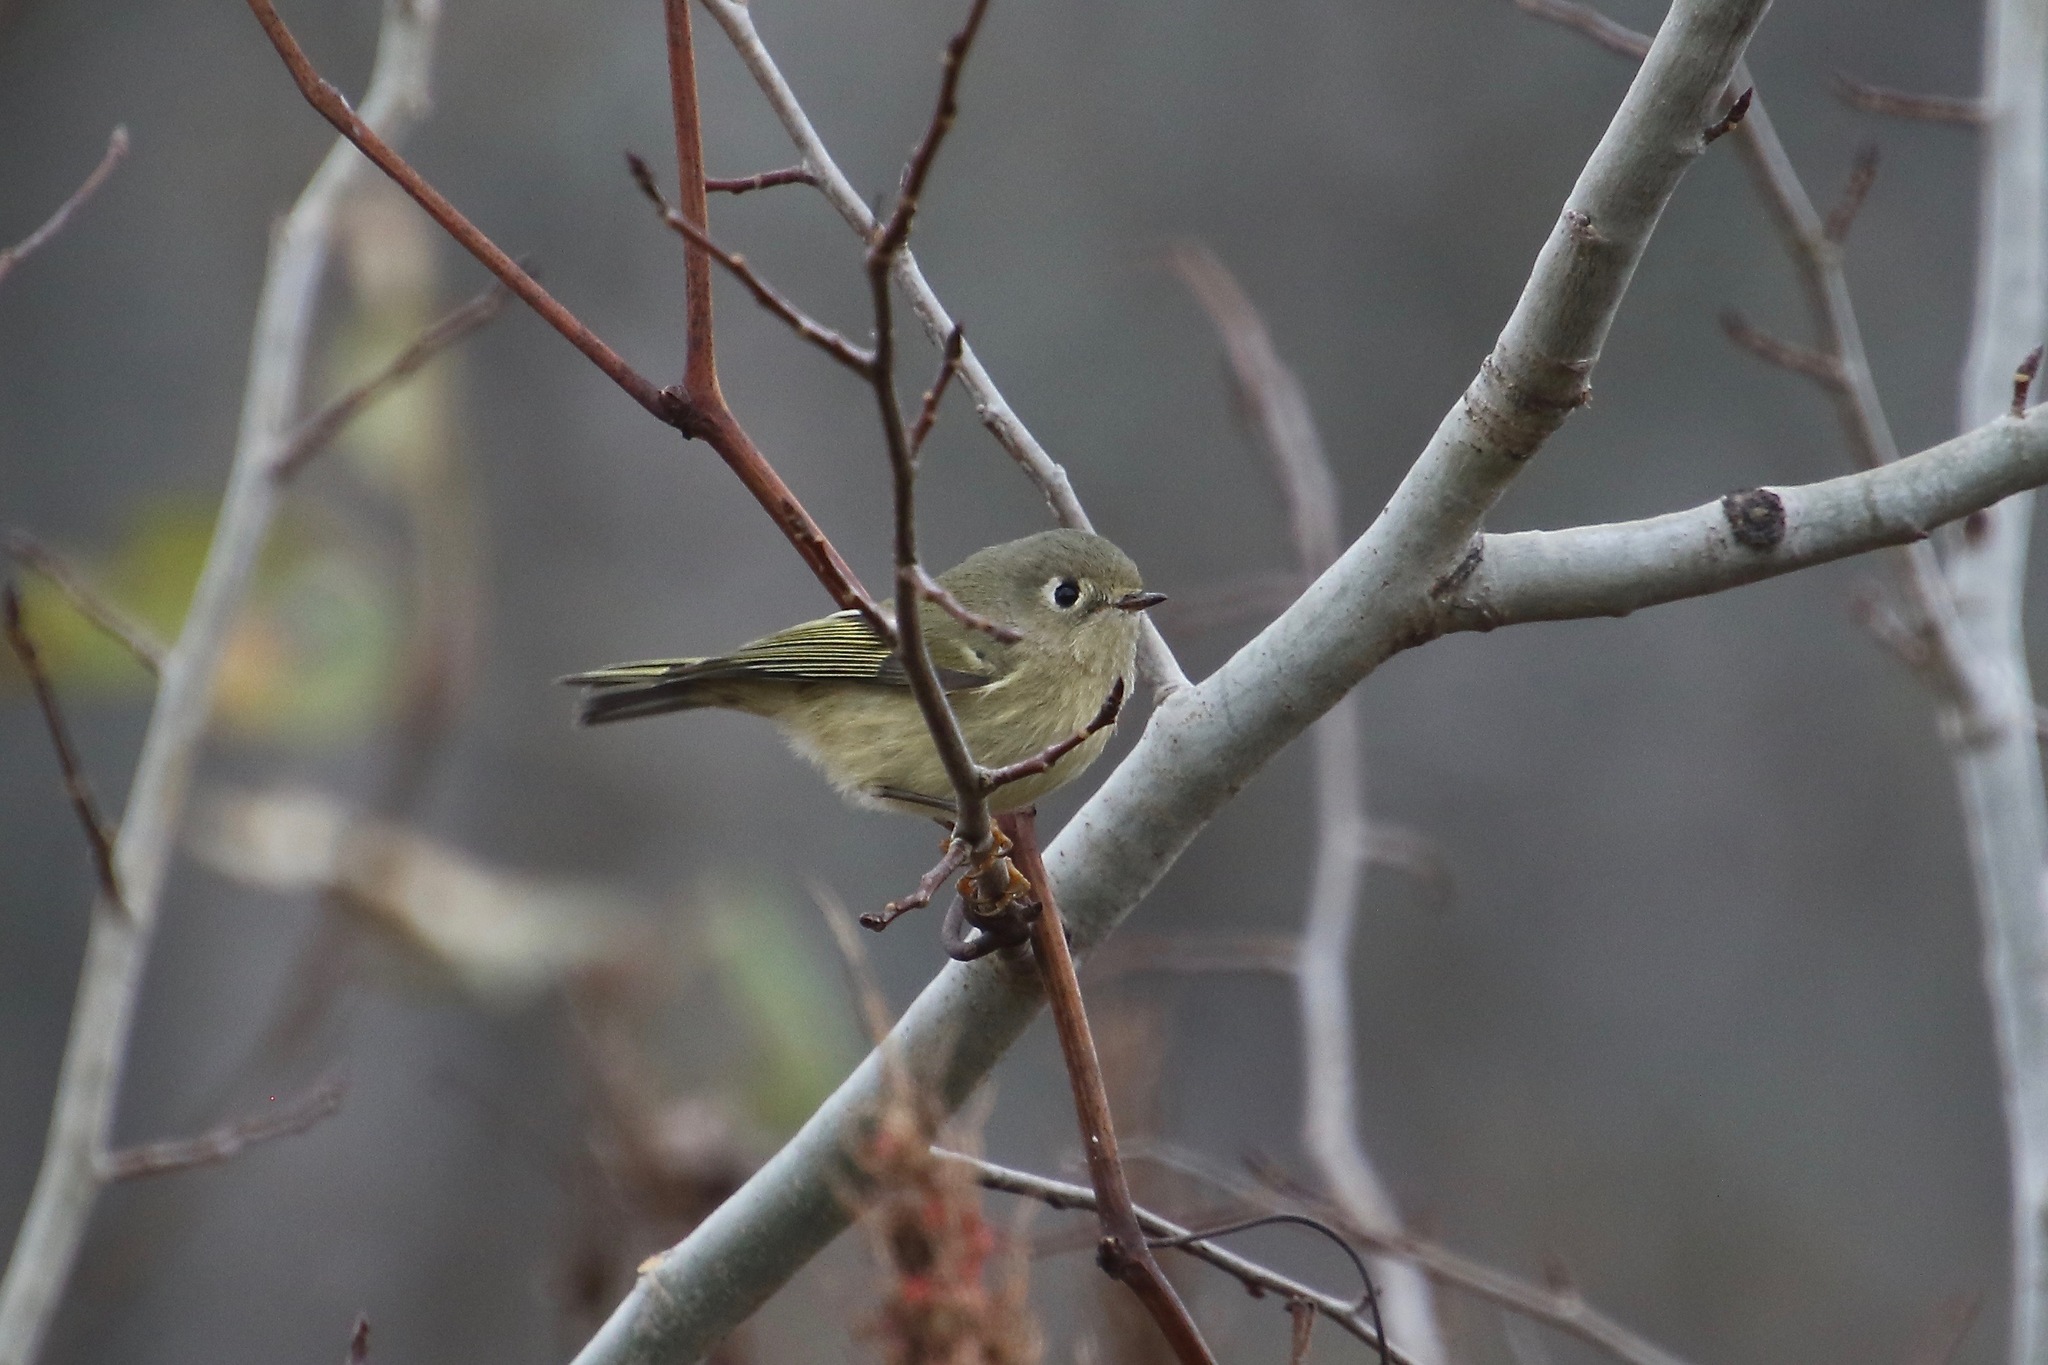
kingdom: Animalia
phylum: Chordata
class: Aves
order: Passeriformes
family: Regulidae
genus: Regulus
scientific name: Regulus calendula
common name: Ruby-crowned kinglet
